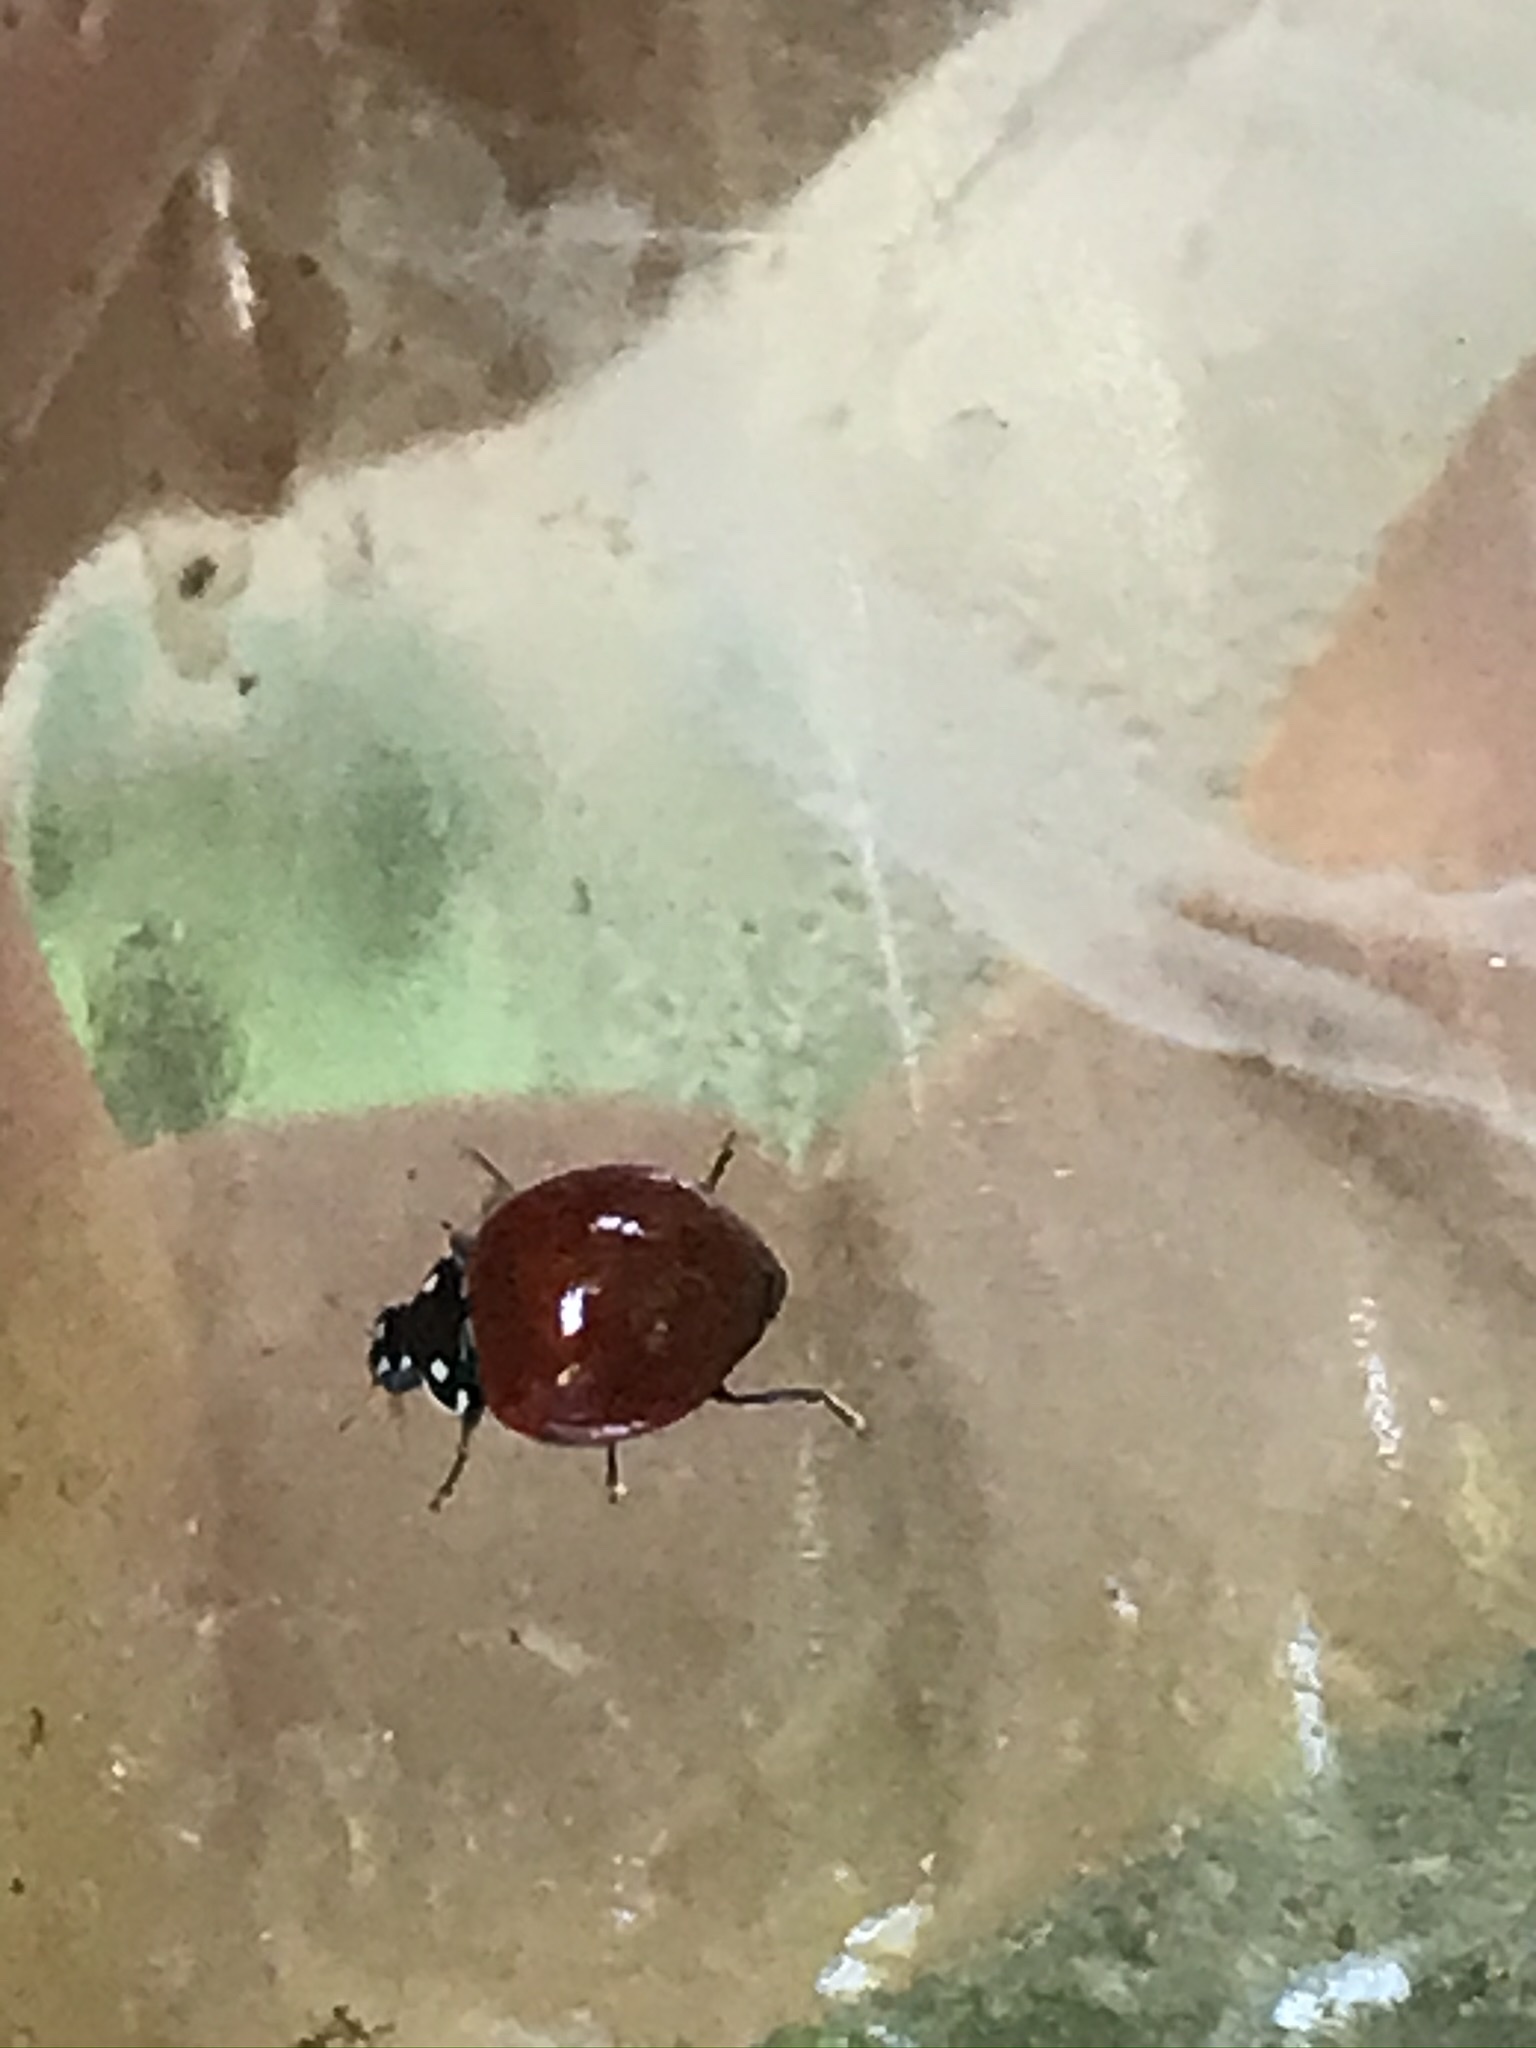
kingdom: Animalia
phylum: Arthropoda
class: Insecta
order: Coleoptera
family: Coccinellidae
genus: Cycloneda
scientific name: Cycloneda sanguinea
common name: Ladybird beetle
